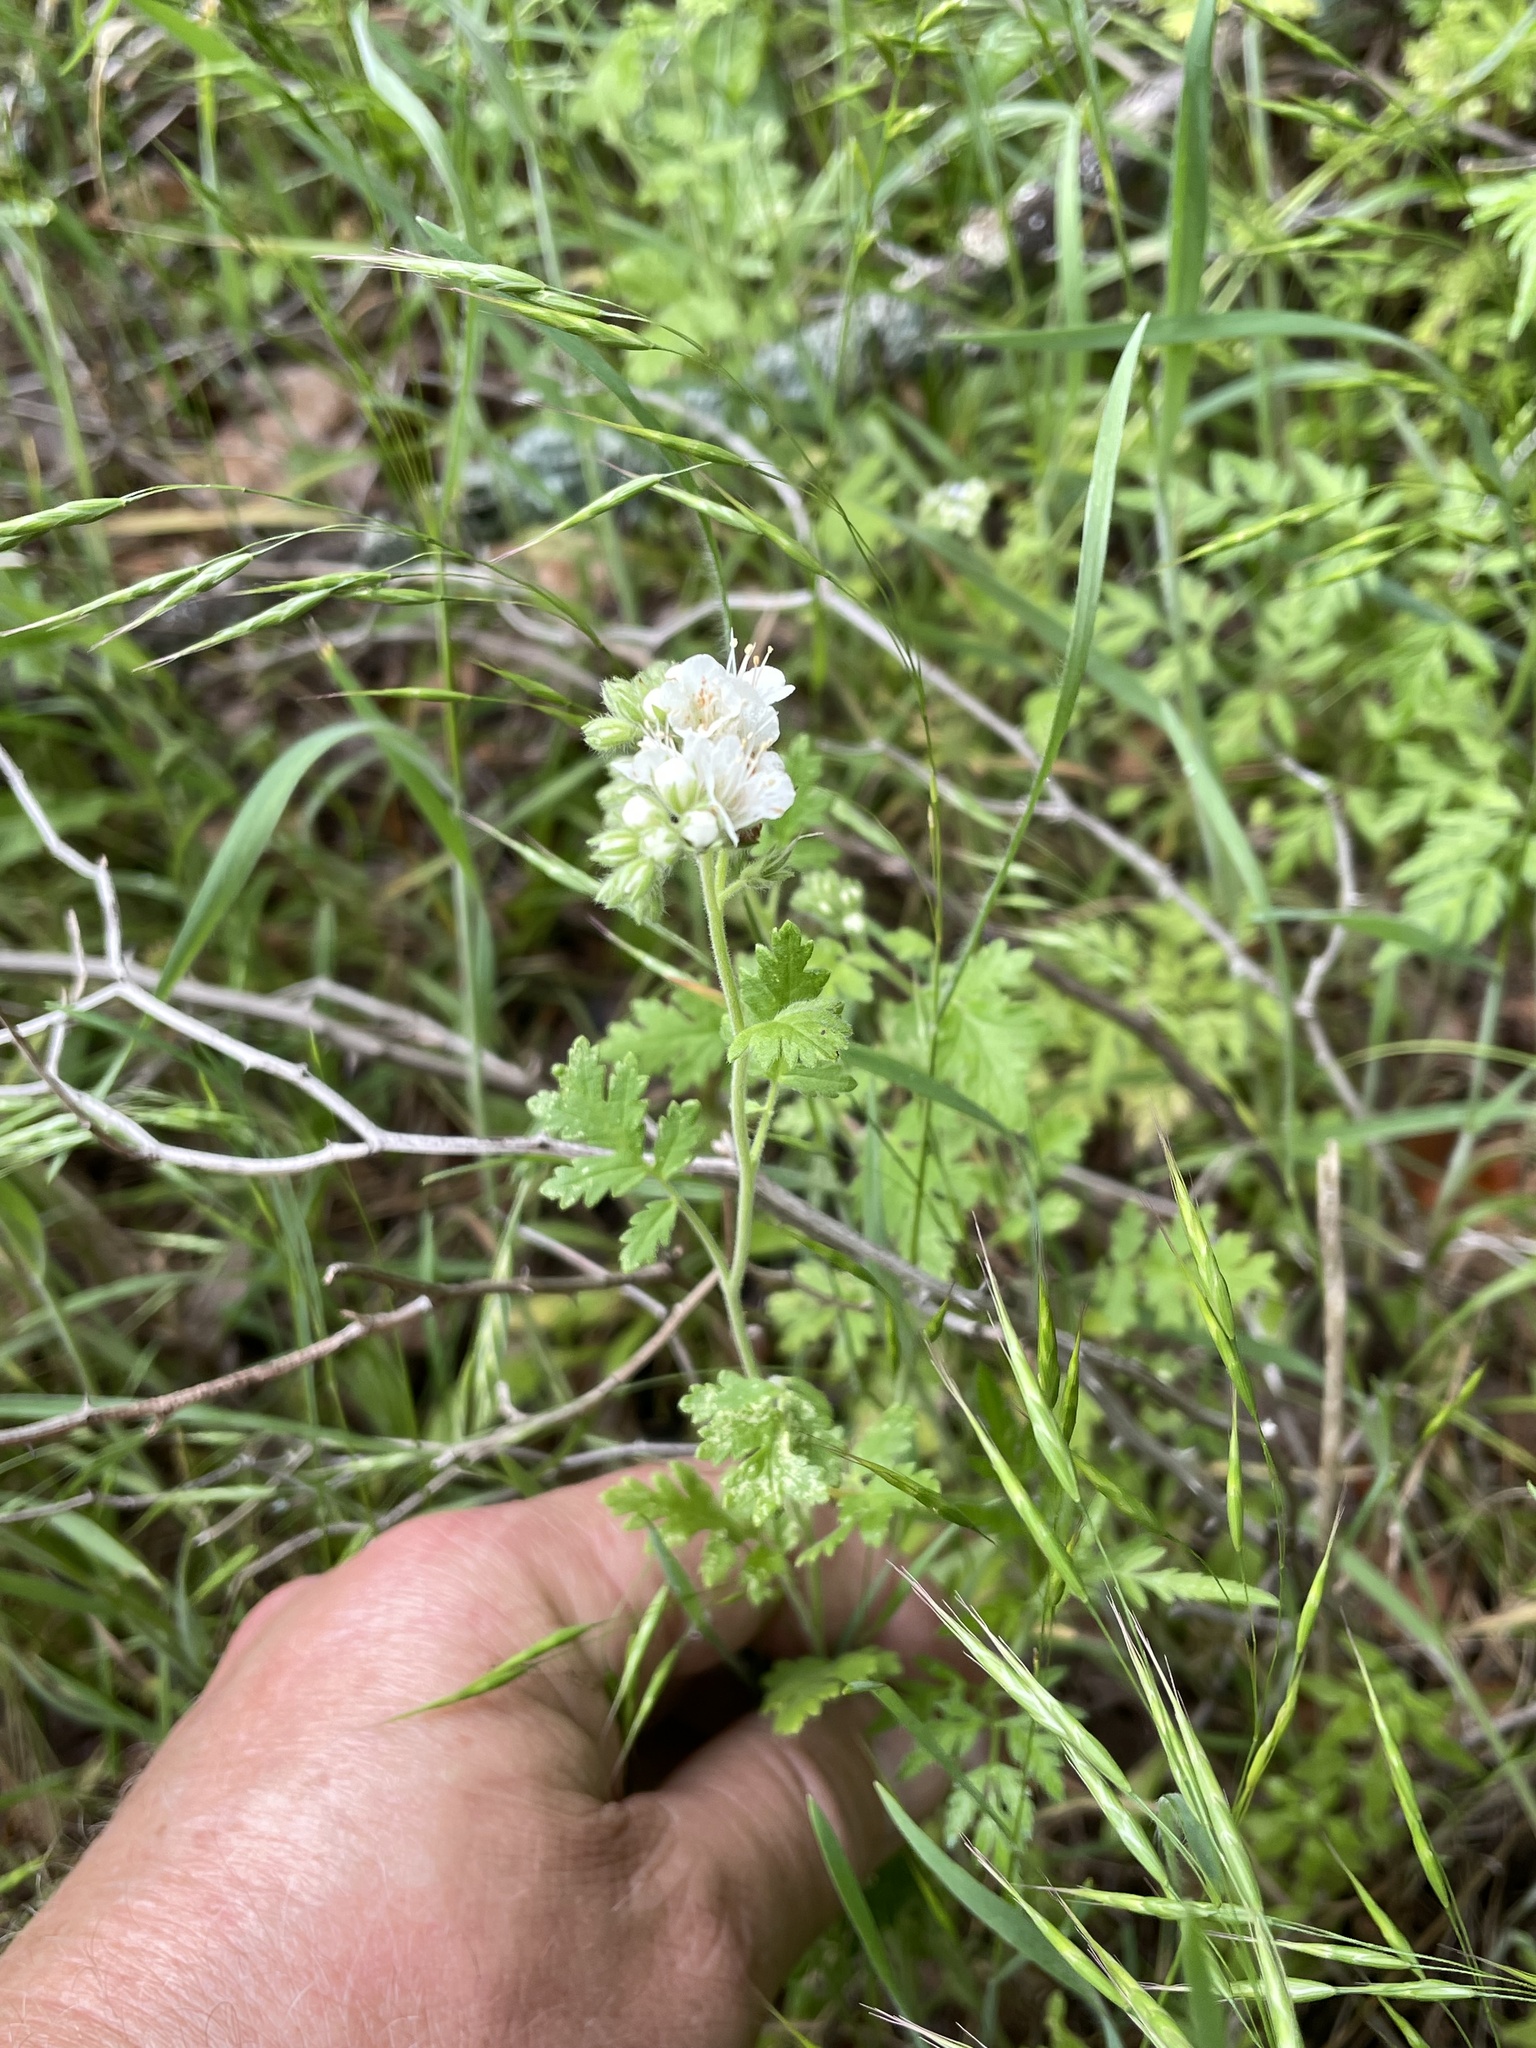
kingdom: Plantae
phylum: Tracheophyta
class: Magnoliopsida
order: Boraginales
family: Hydrophyllaceae
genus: Phacelia
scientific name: Phacelia congesta
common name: Blue curls
